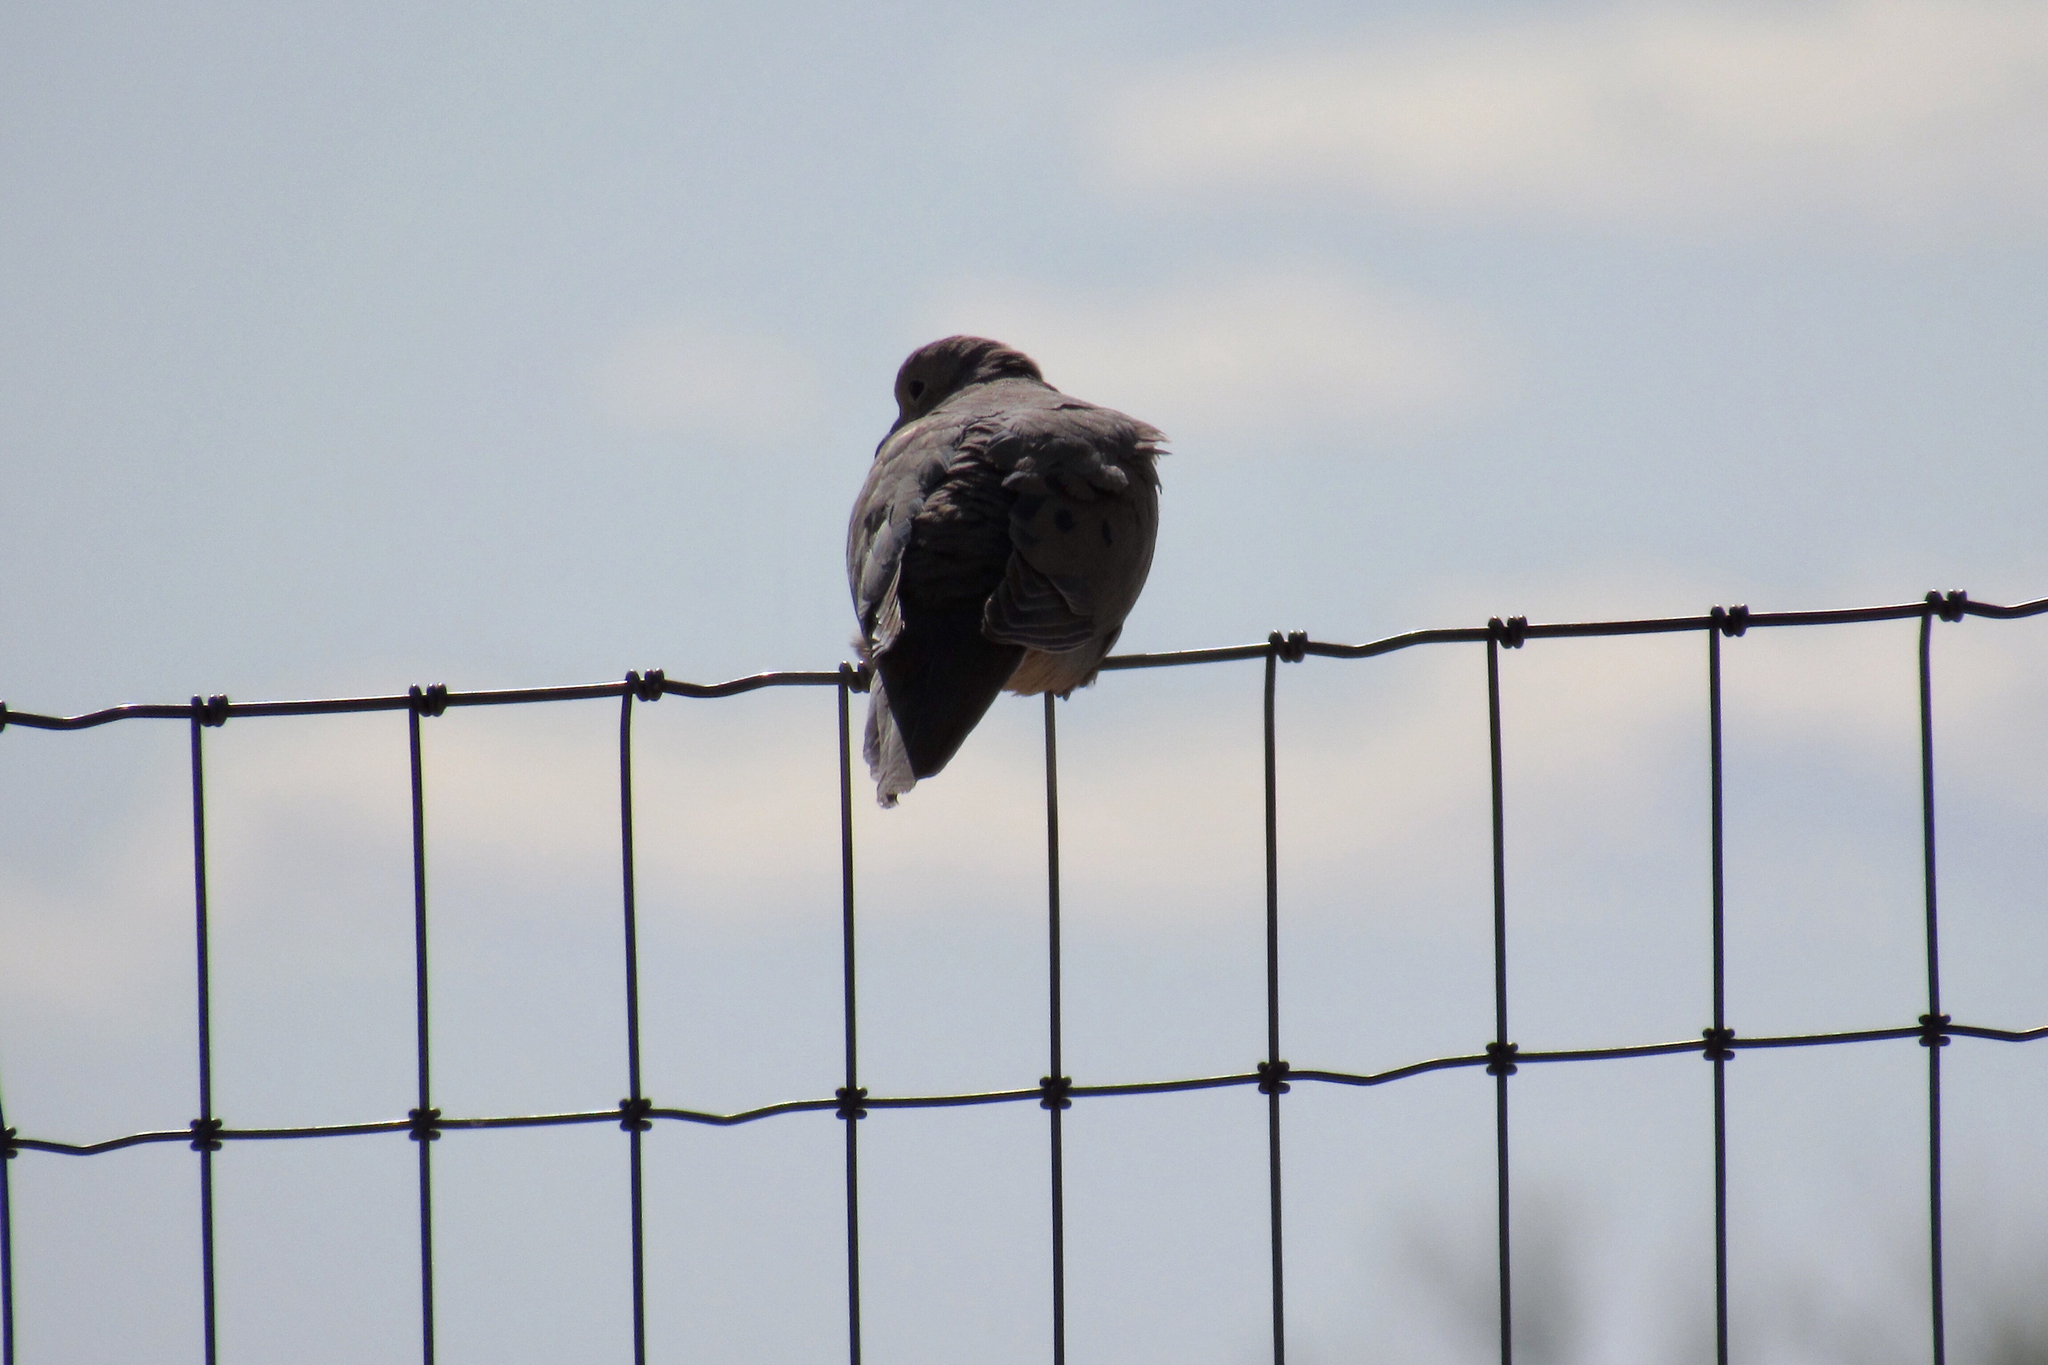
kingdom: Animalia
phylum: Chordata
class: Aves
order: Columbiformes
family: Columbidae
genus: Zenaida
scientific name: Zenaida macroura
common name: Mourning dove
